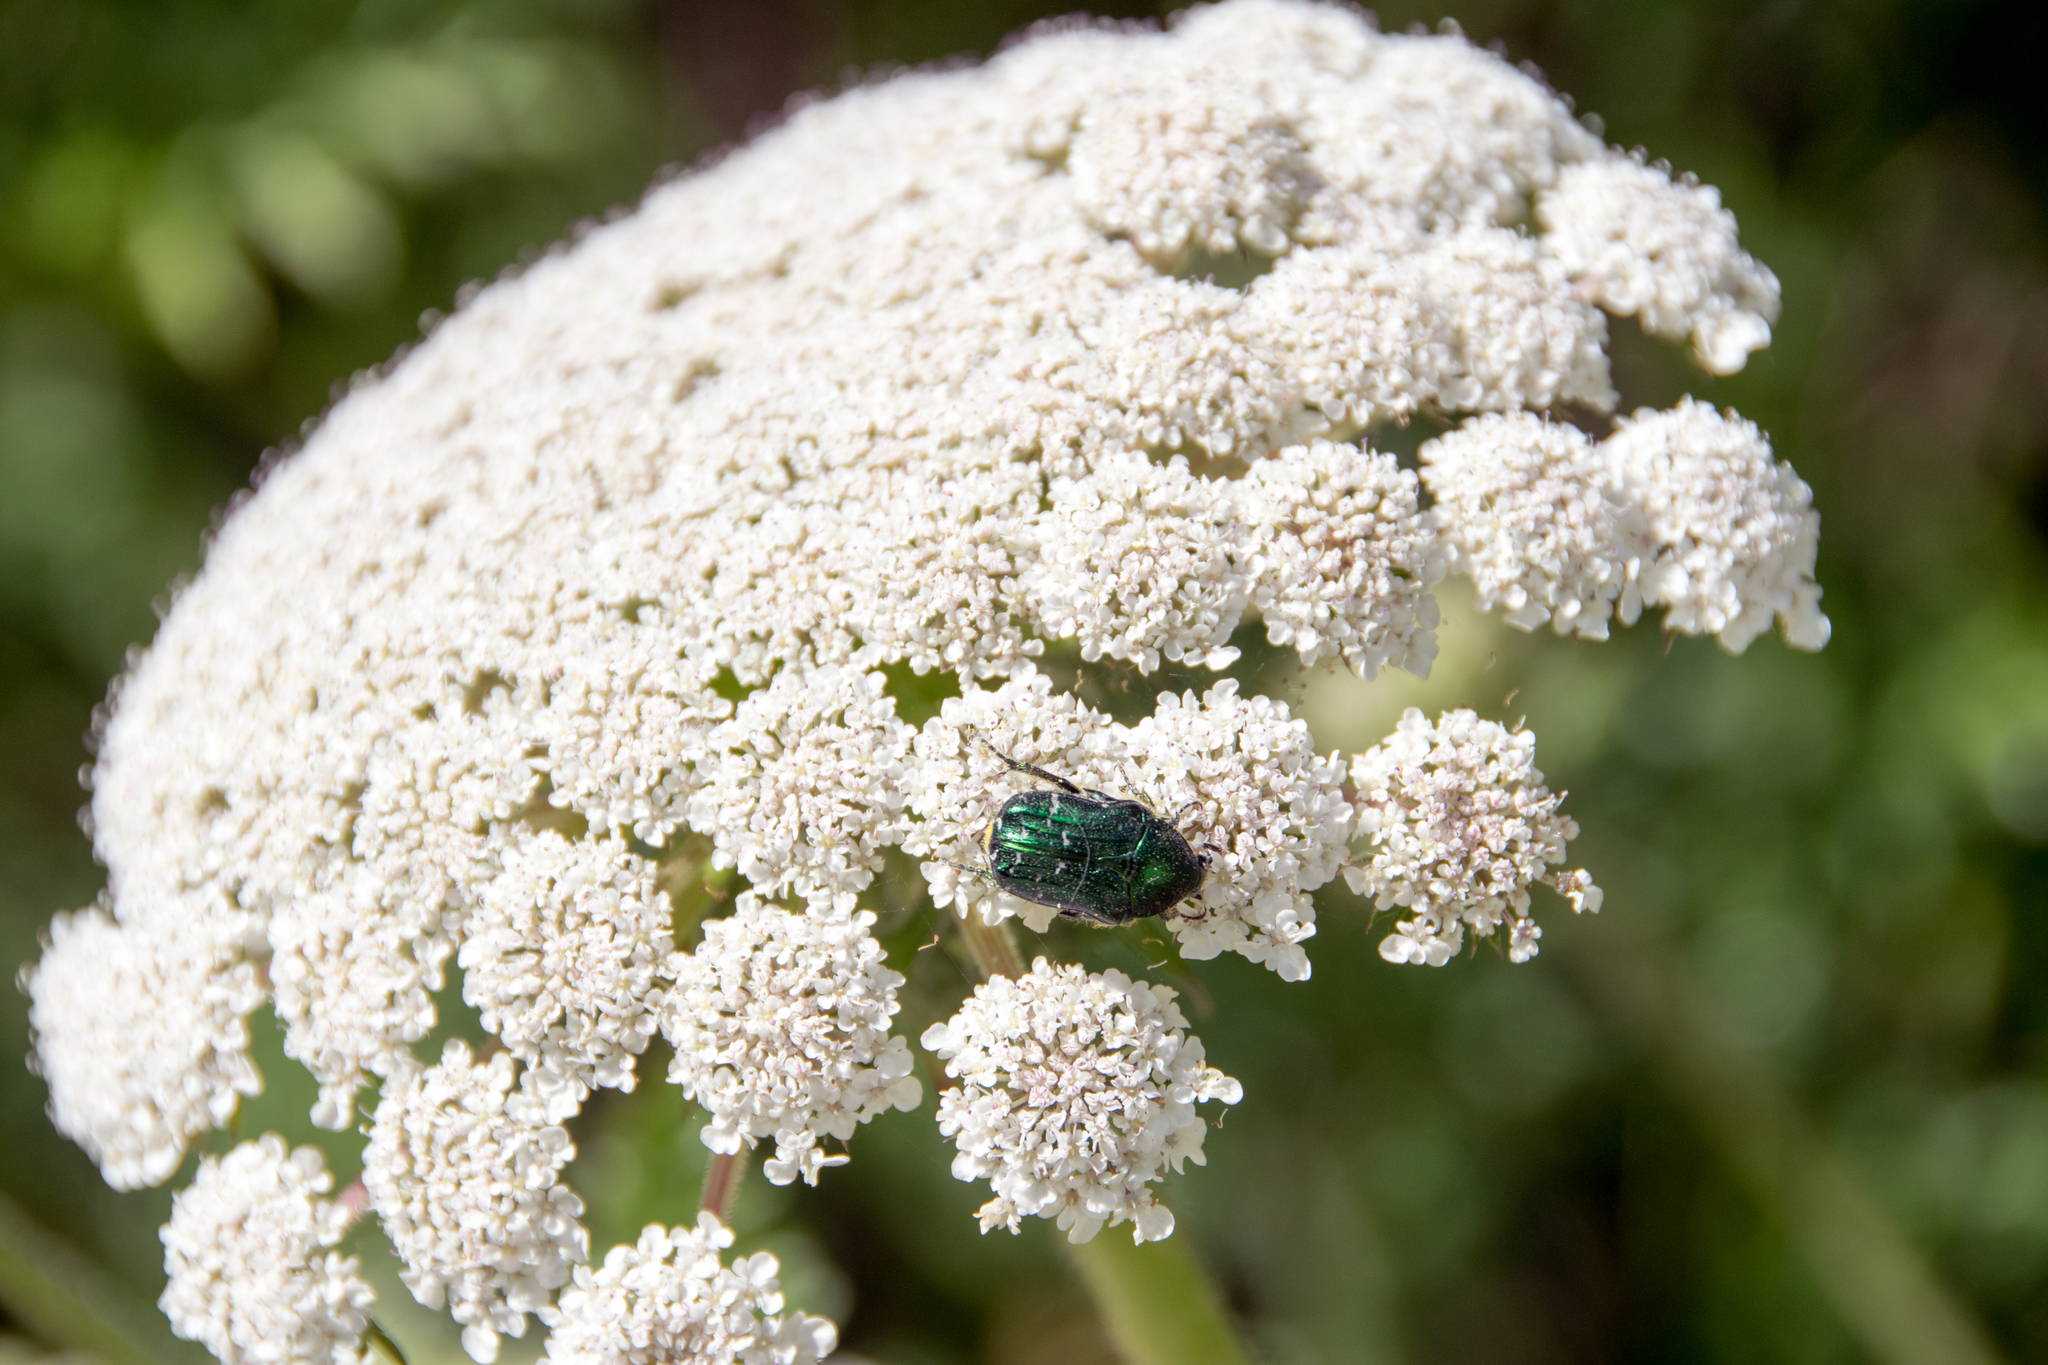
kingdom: Animalia
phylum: Arthropoda
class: Insecta
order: Coleoptera
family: Scarabaeidae
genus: Cetonia
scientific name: Cetonia carthami
